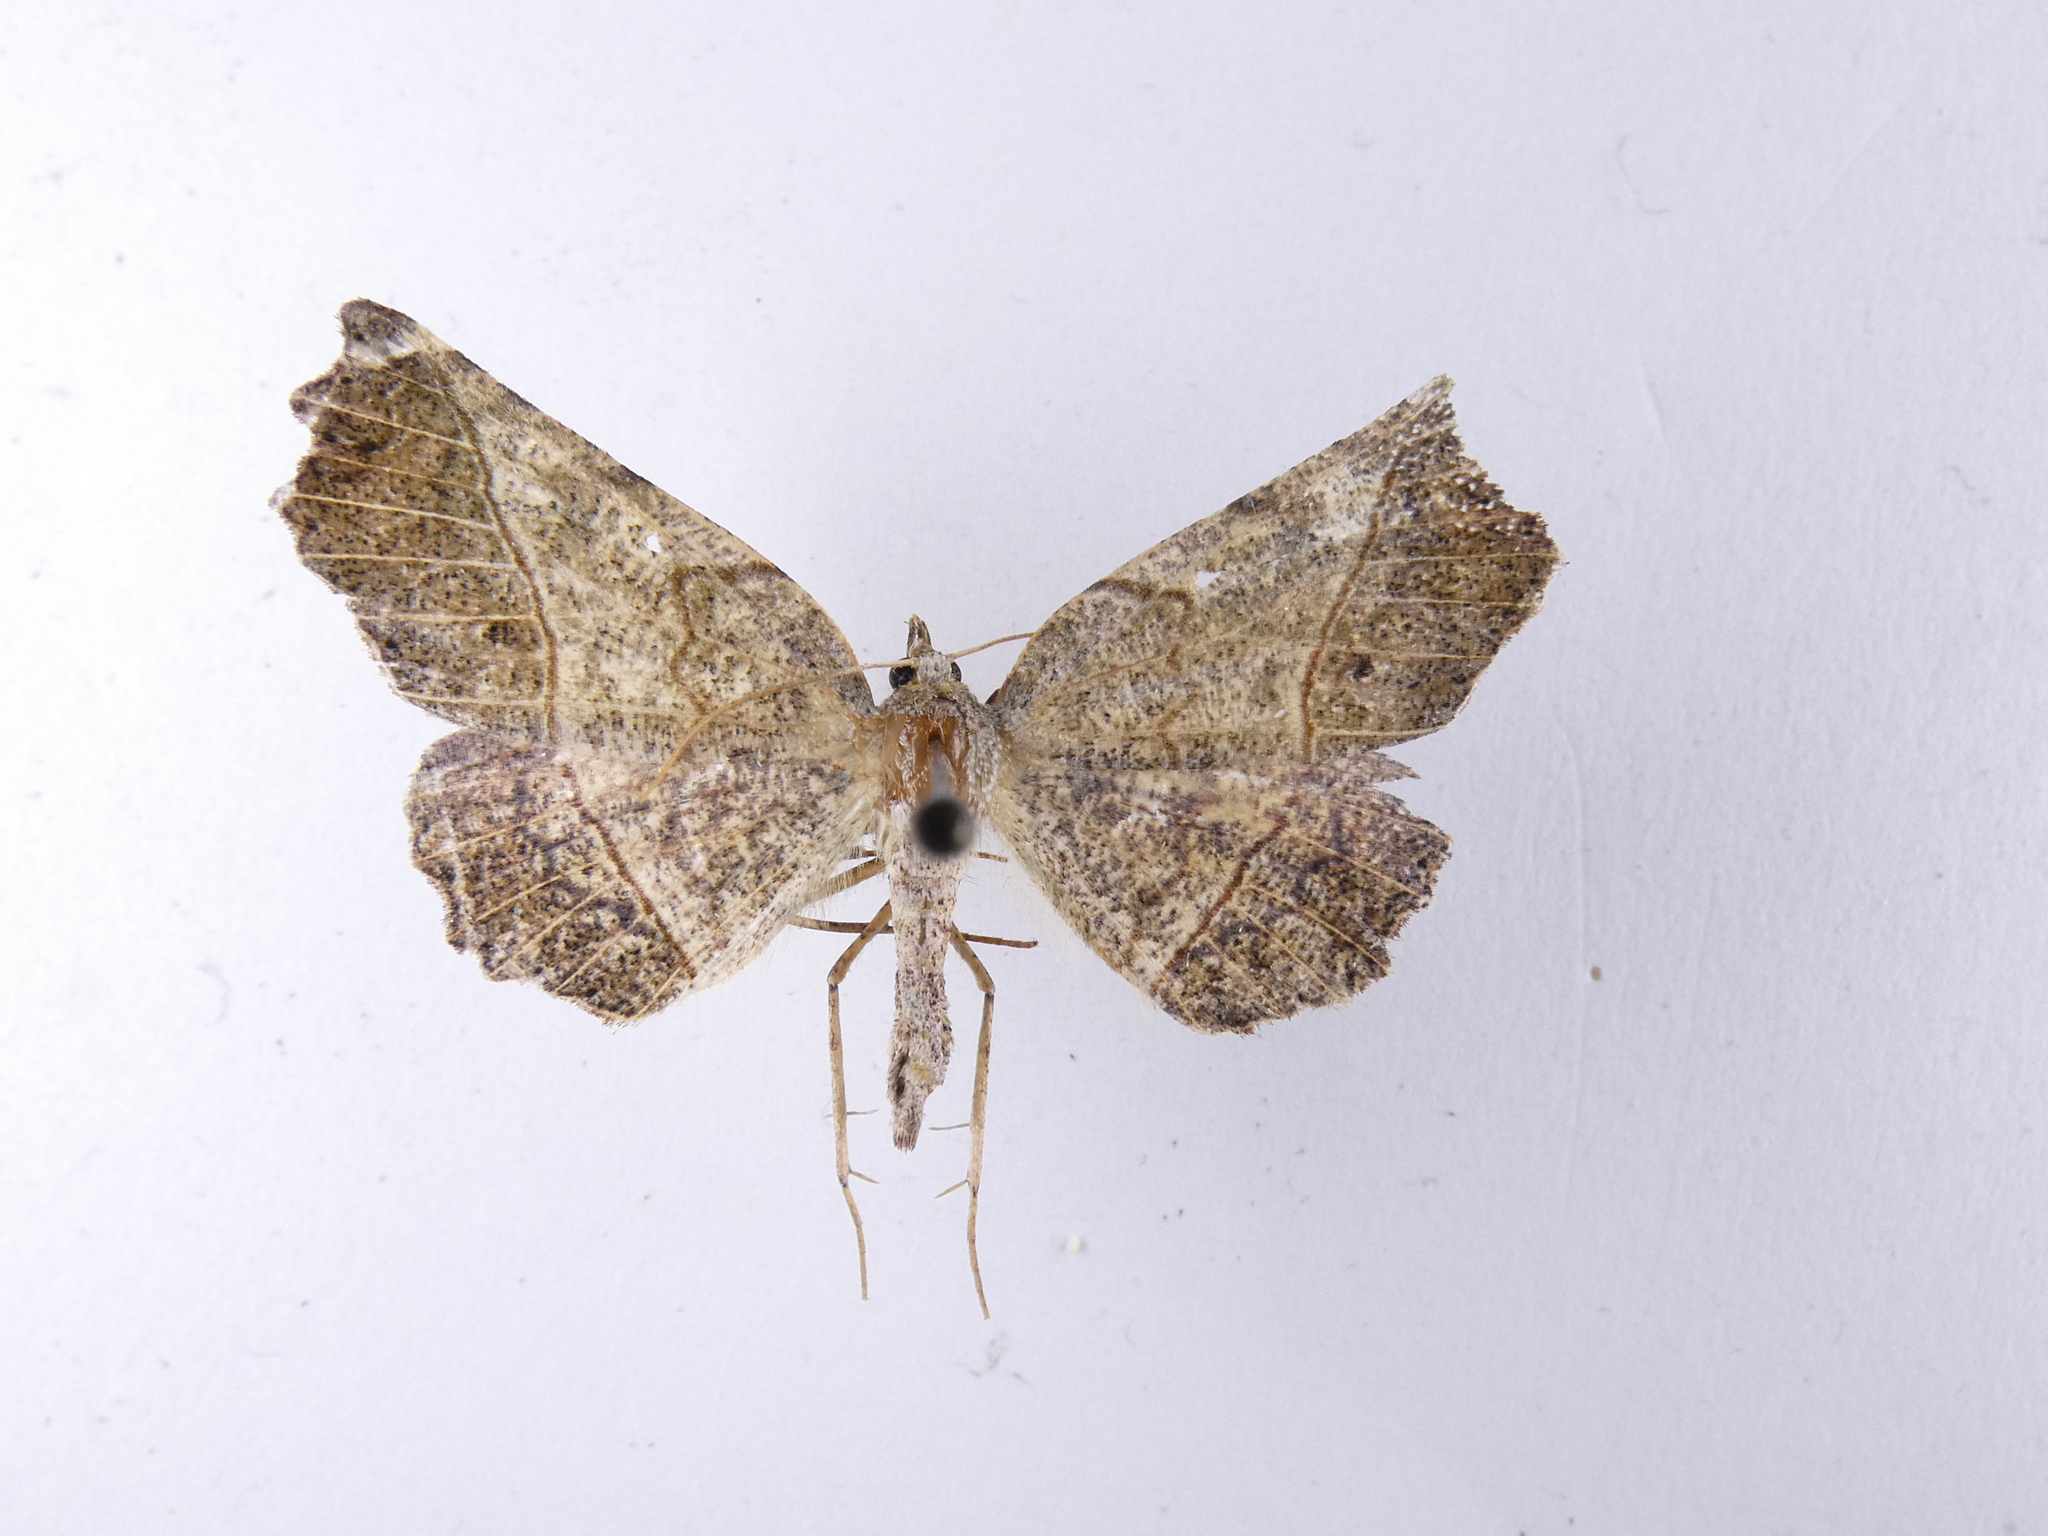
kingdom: Animalia
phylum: Arthropoda
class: Insecta
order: Lepidoptera
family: Geometridae
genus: Ischalis
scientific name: Ischalis gallaria
